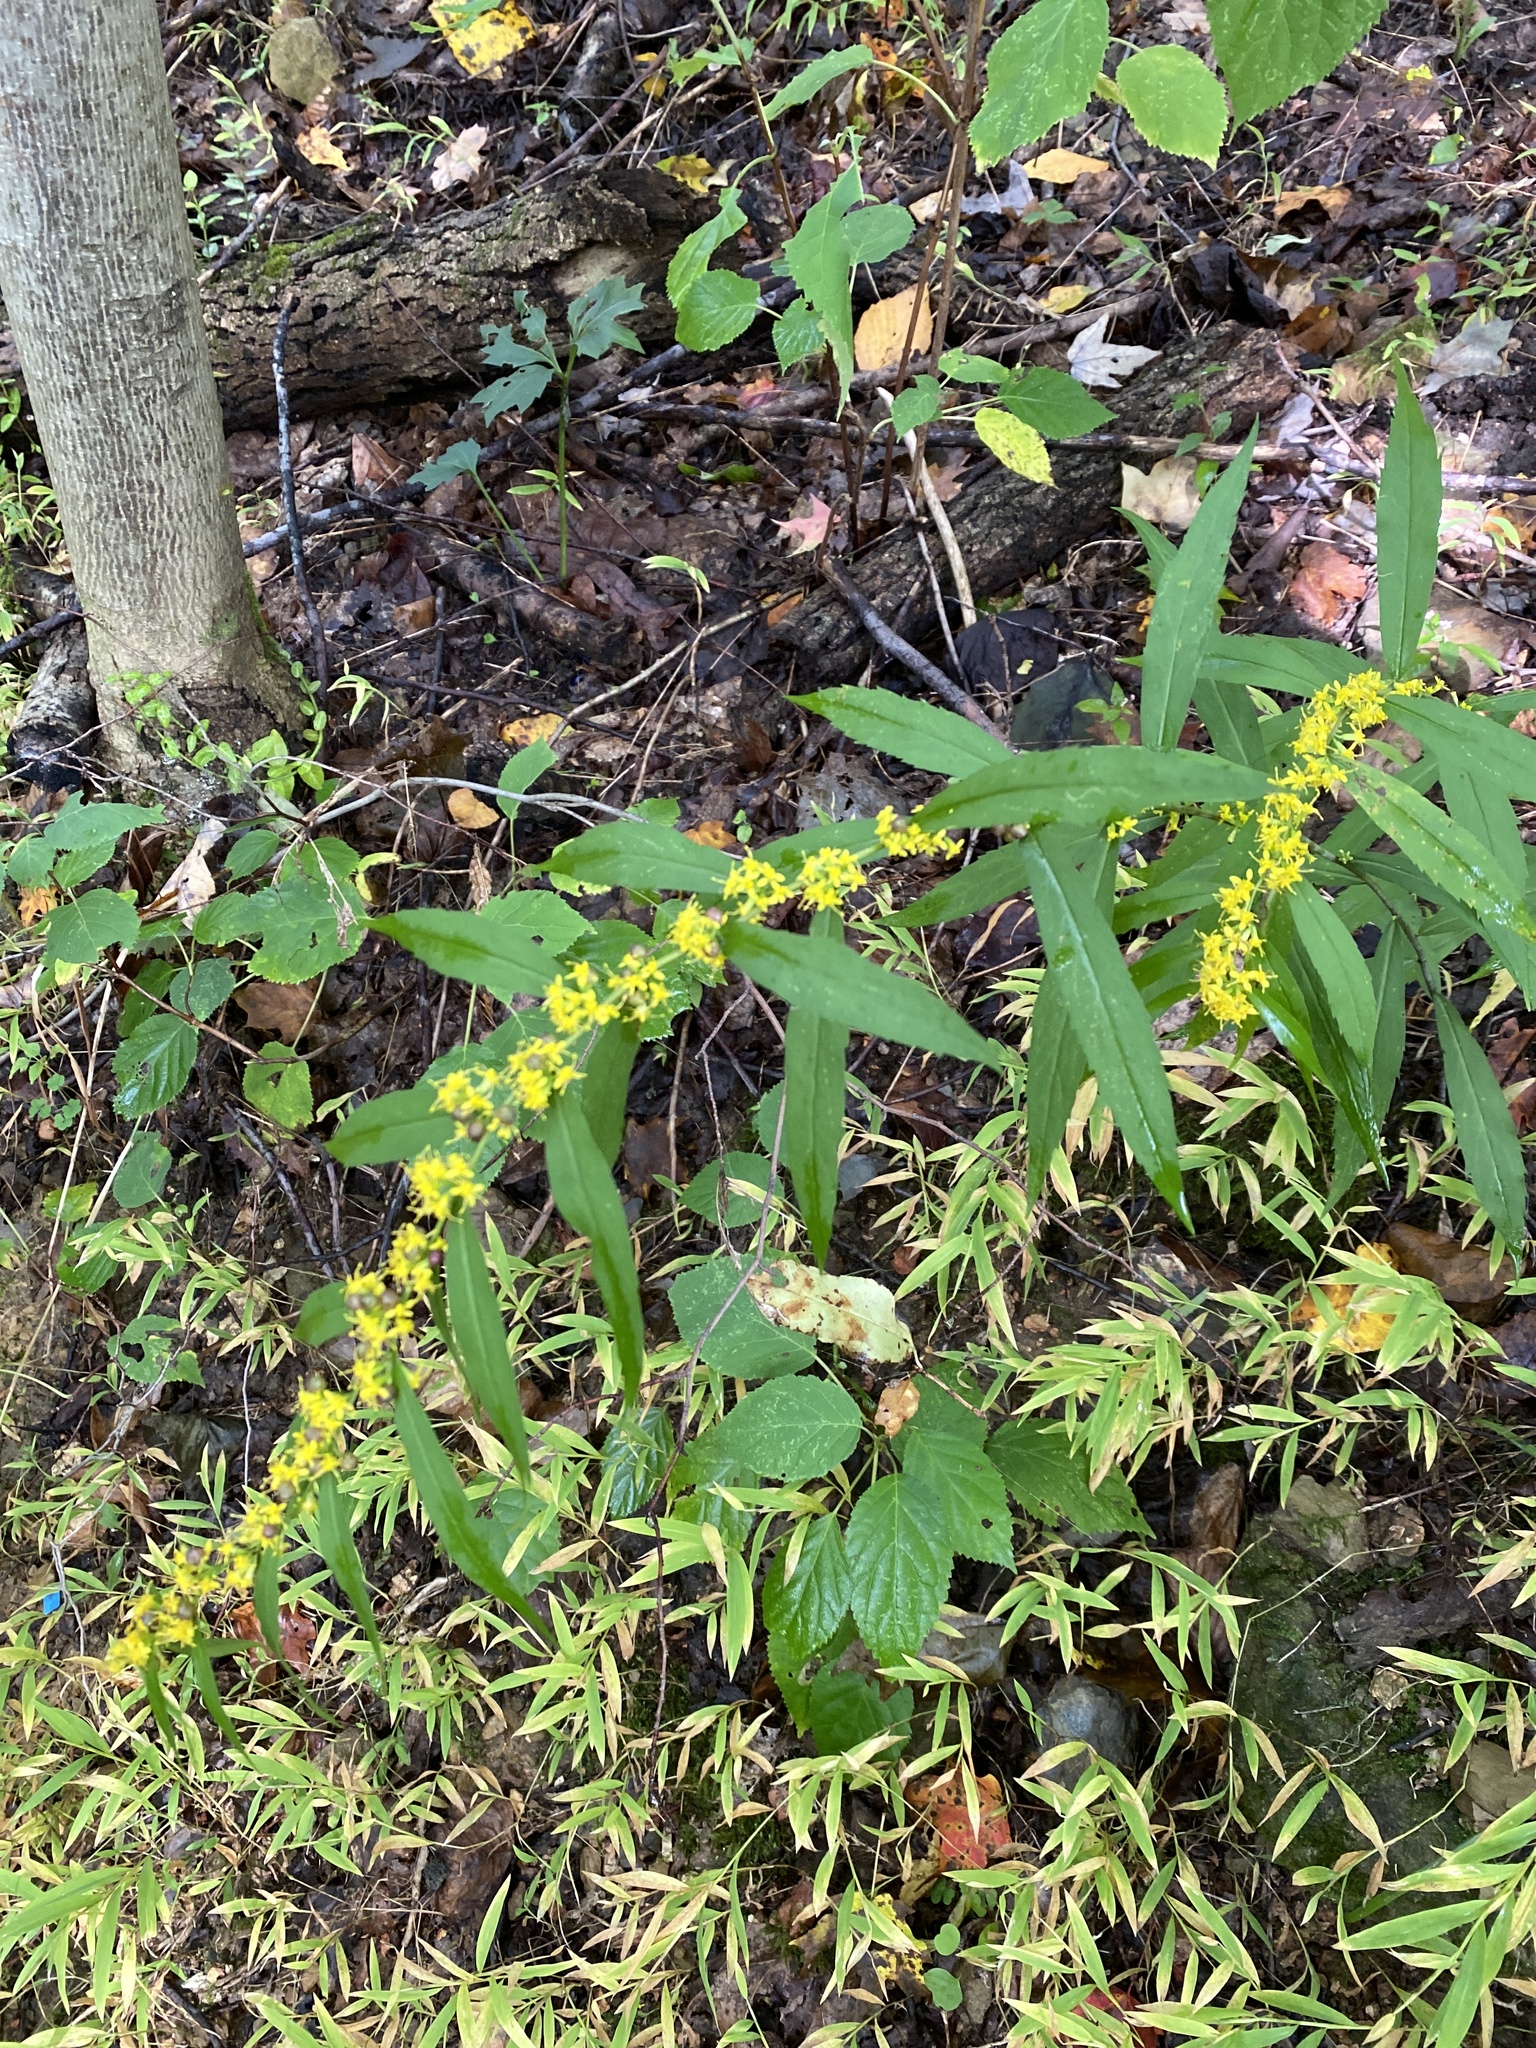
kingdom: Plantae
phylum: Tracheophyta
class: Magnoliopsida
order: Asterales
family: Asteraceae
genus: Solidago
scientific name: Solidago caesia
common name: Woodland goldenrod
